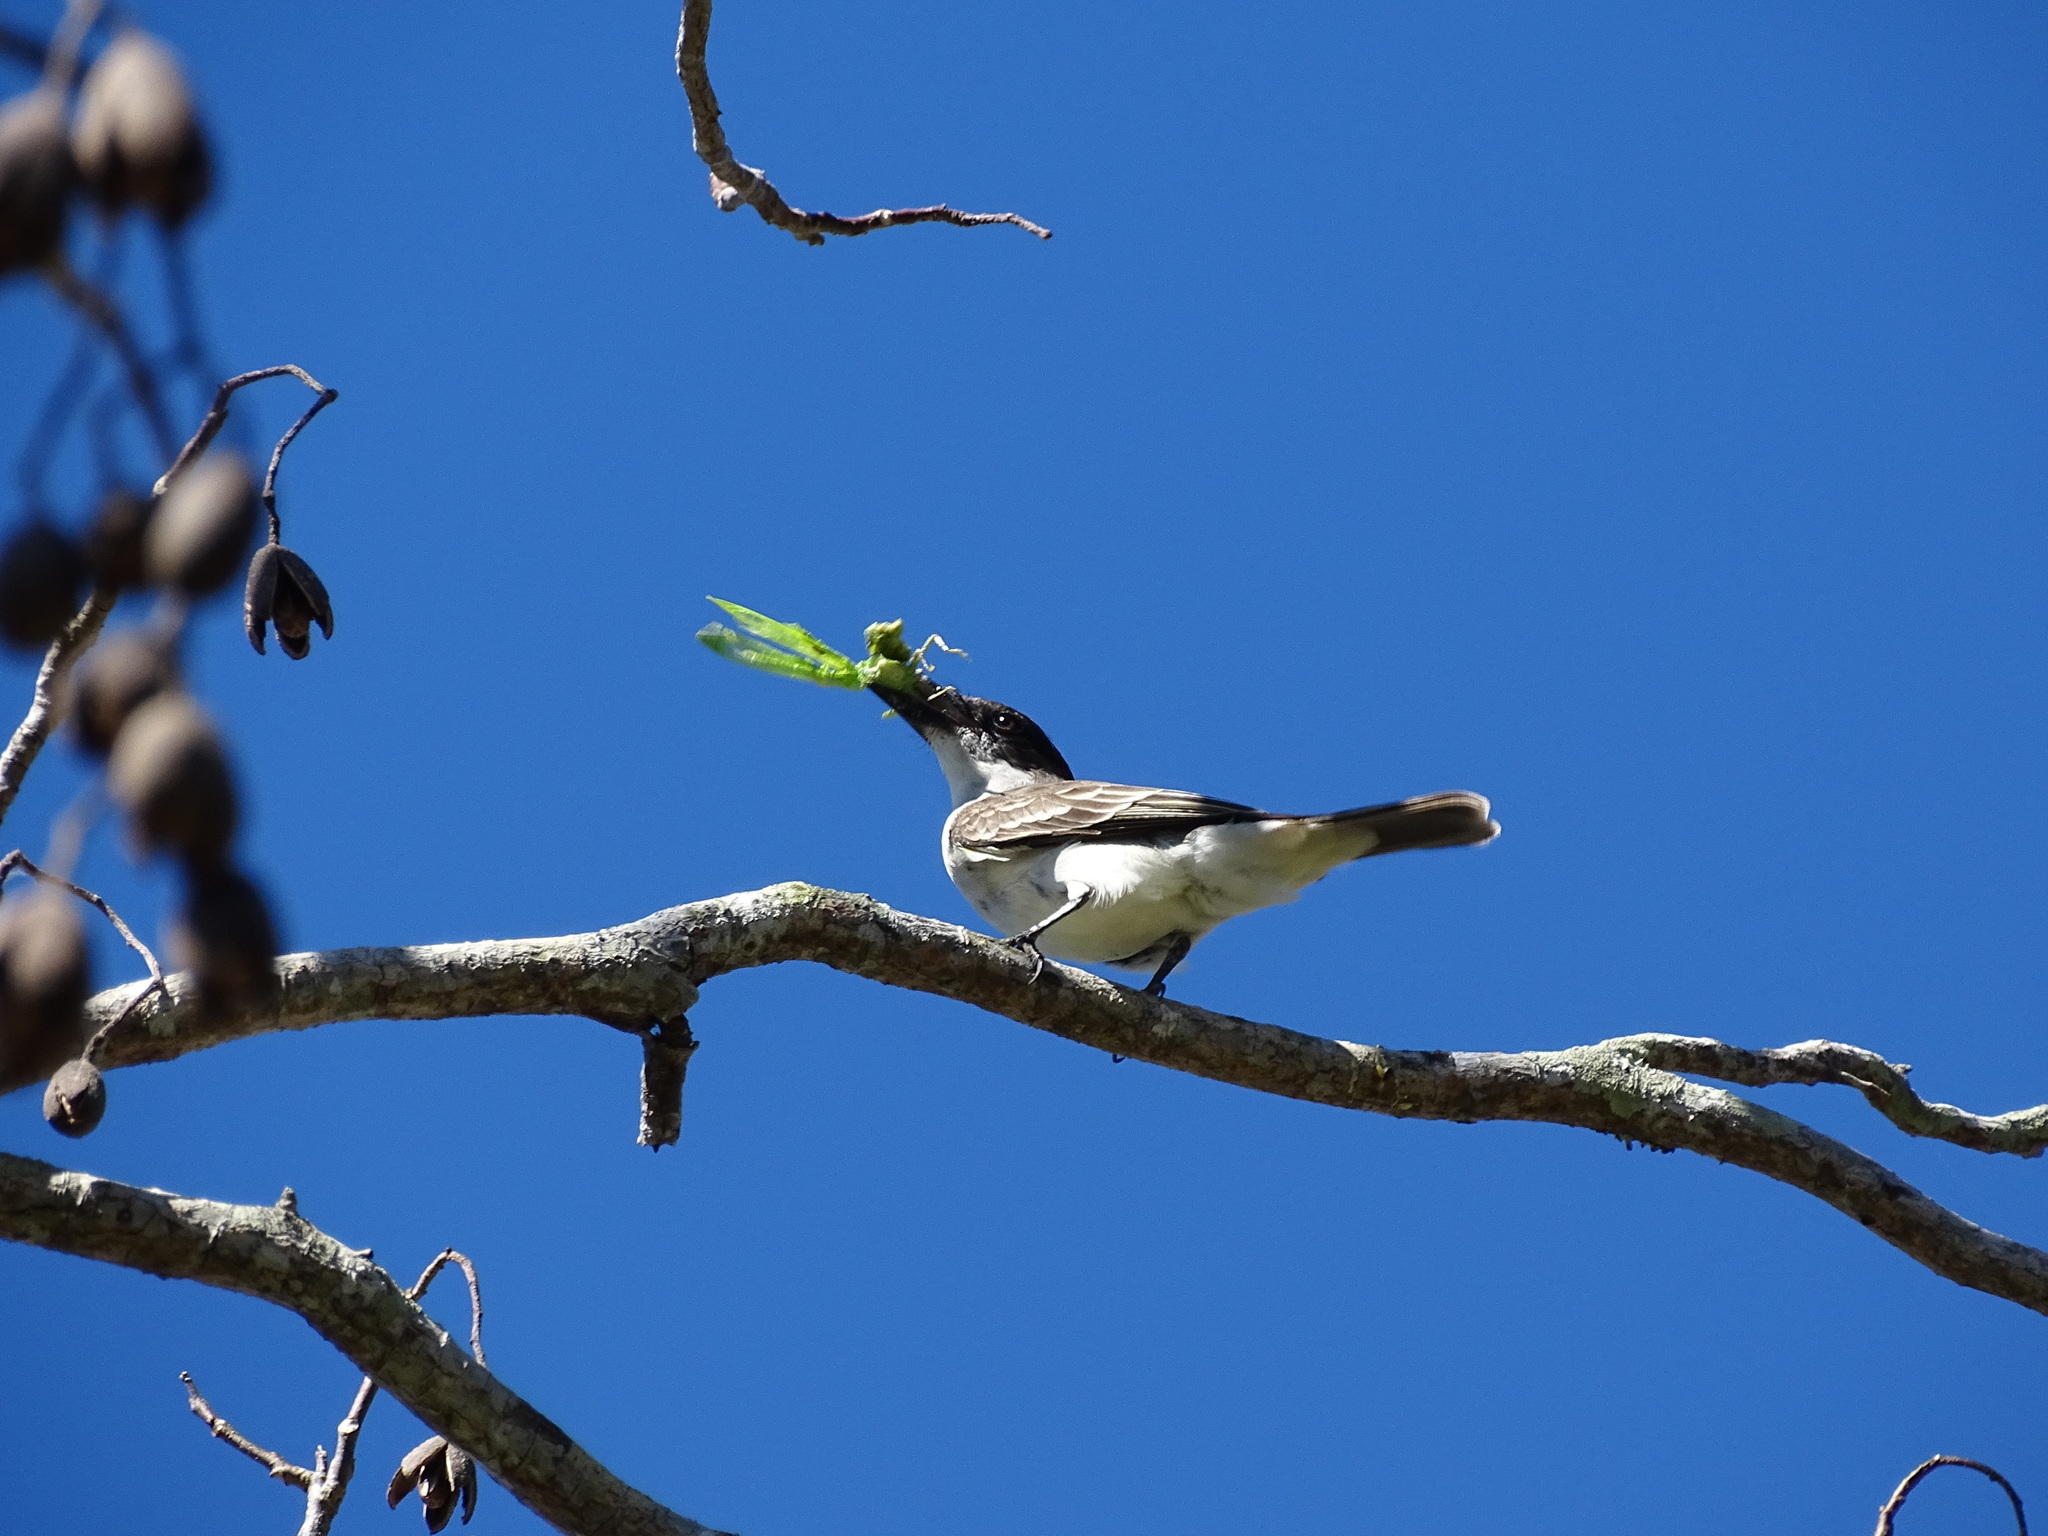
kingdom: Animalia
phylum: Chordata
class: Aves
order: Passeriformes
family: Tyrannidae
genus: Tyrannus
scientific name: Tyrannus cubensis
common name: Giant kingbird
